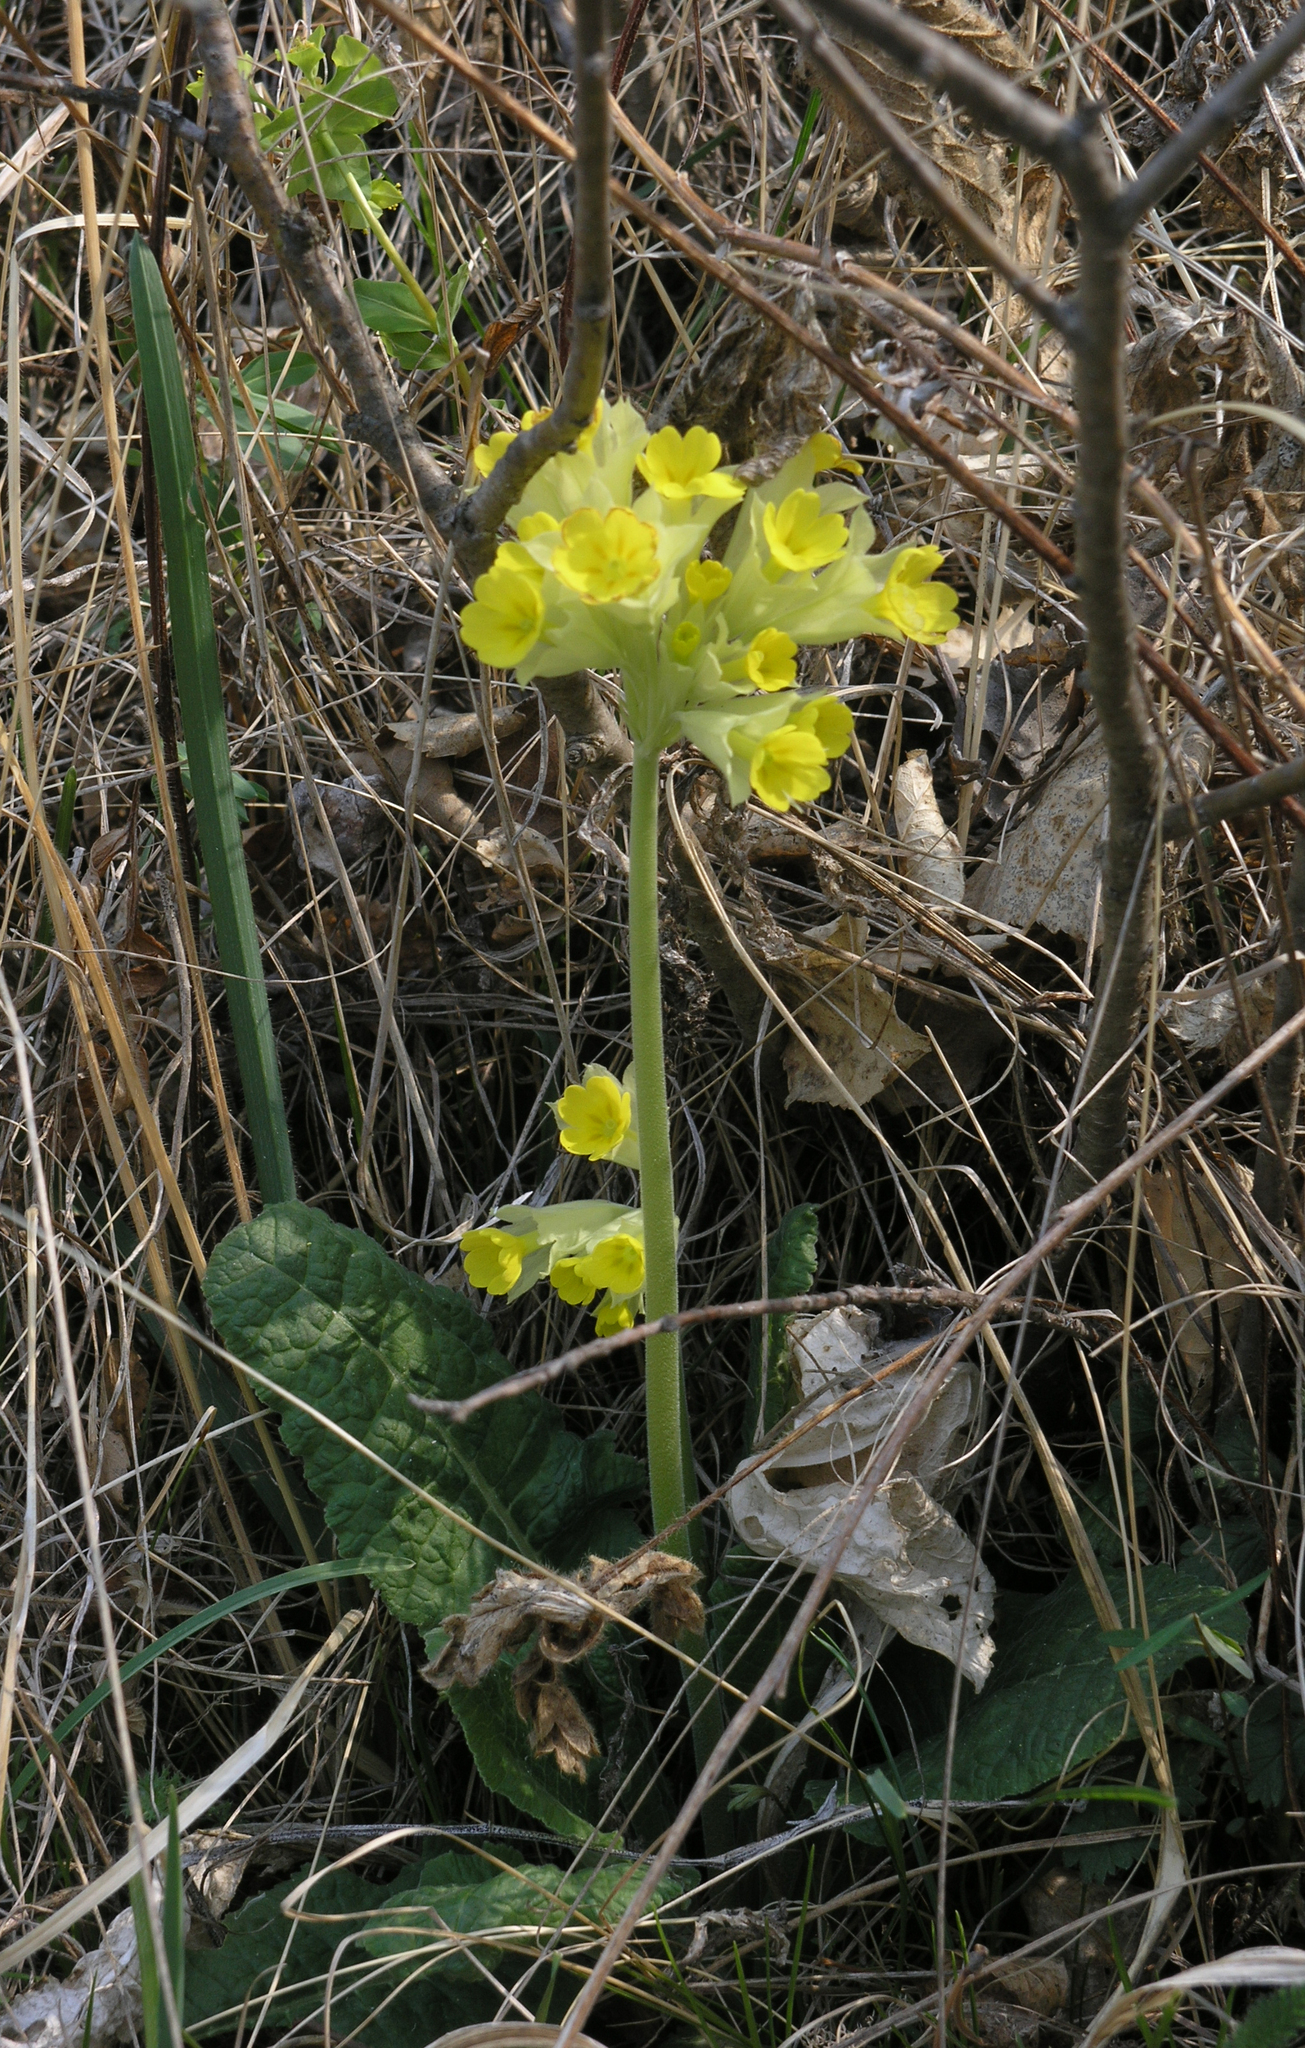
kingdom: Plantae
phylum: Tracheophyta
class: Magnoliopsida
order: Ericales
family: Primulaceae
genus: Primula
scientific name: Primula veris
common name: Cowslip
